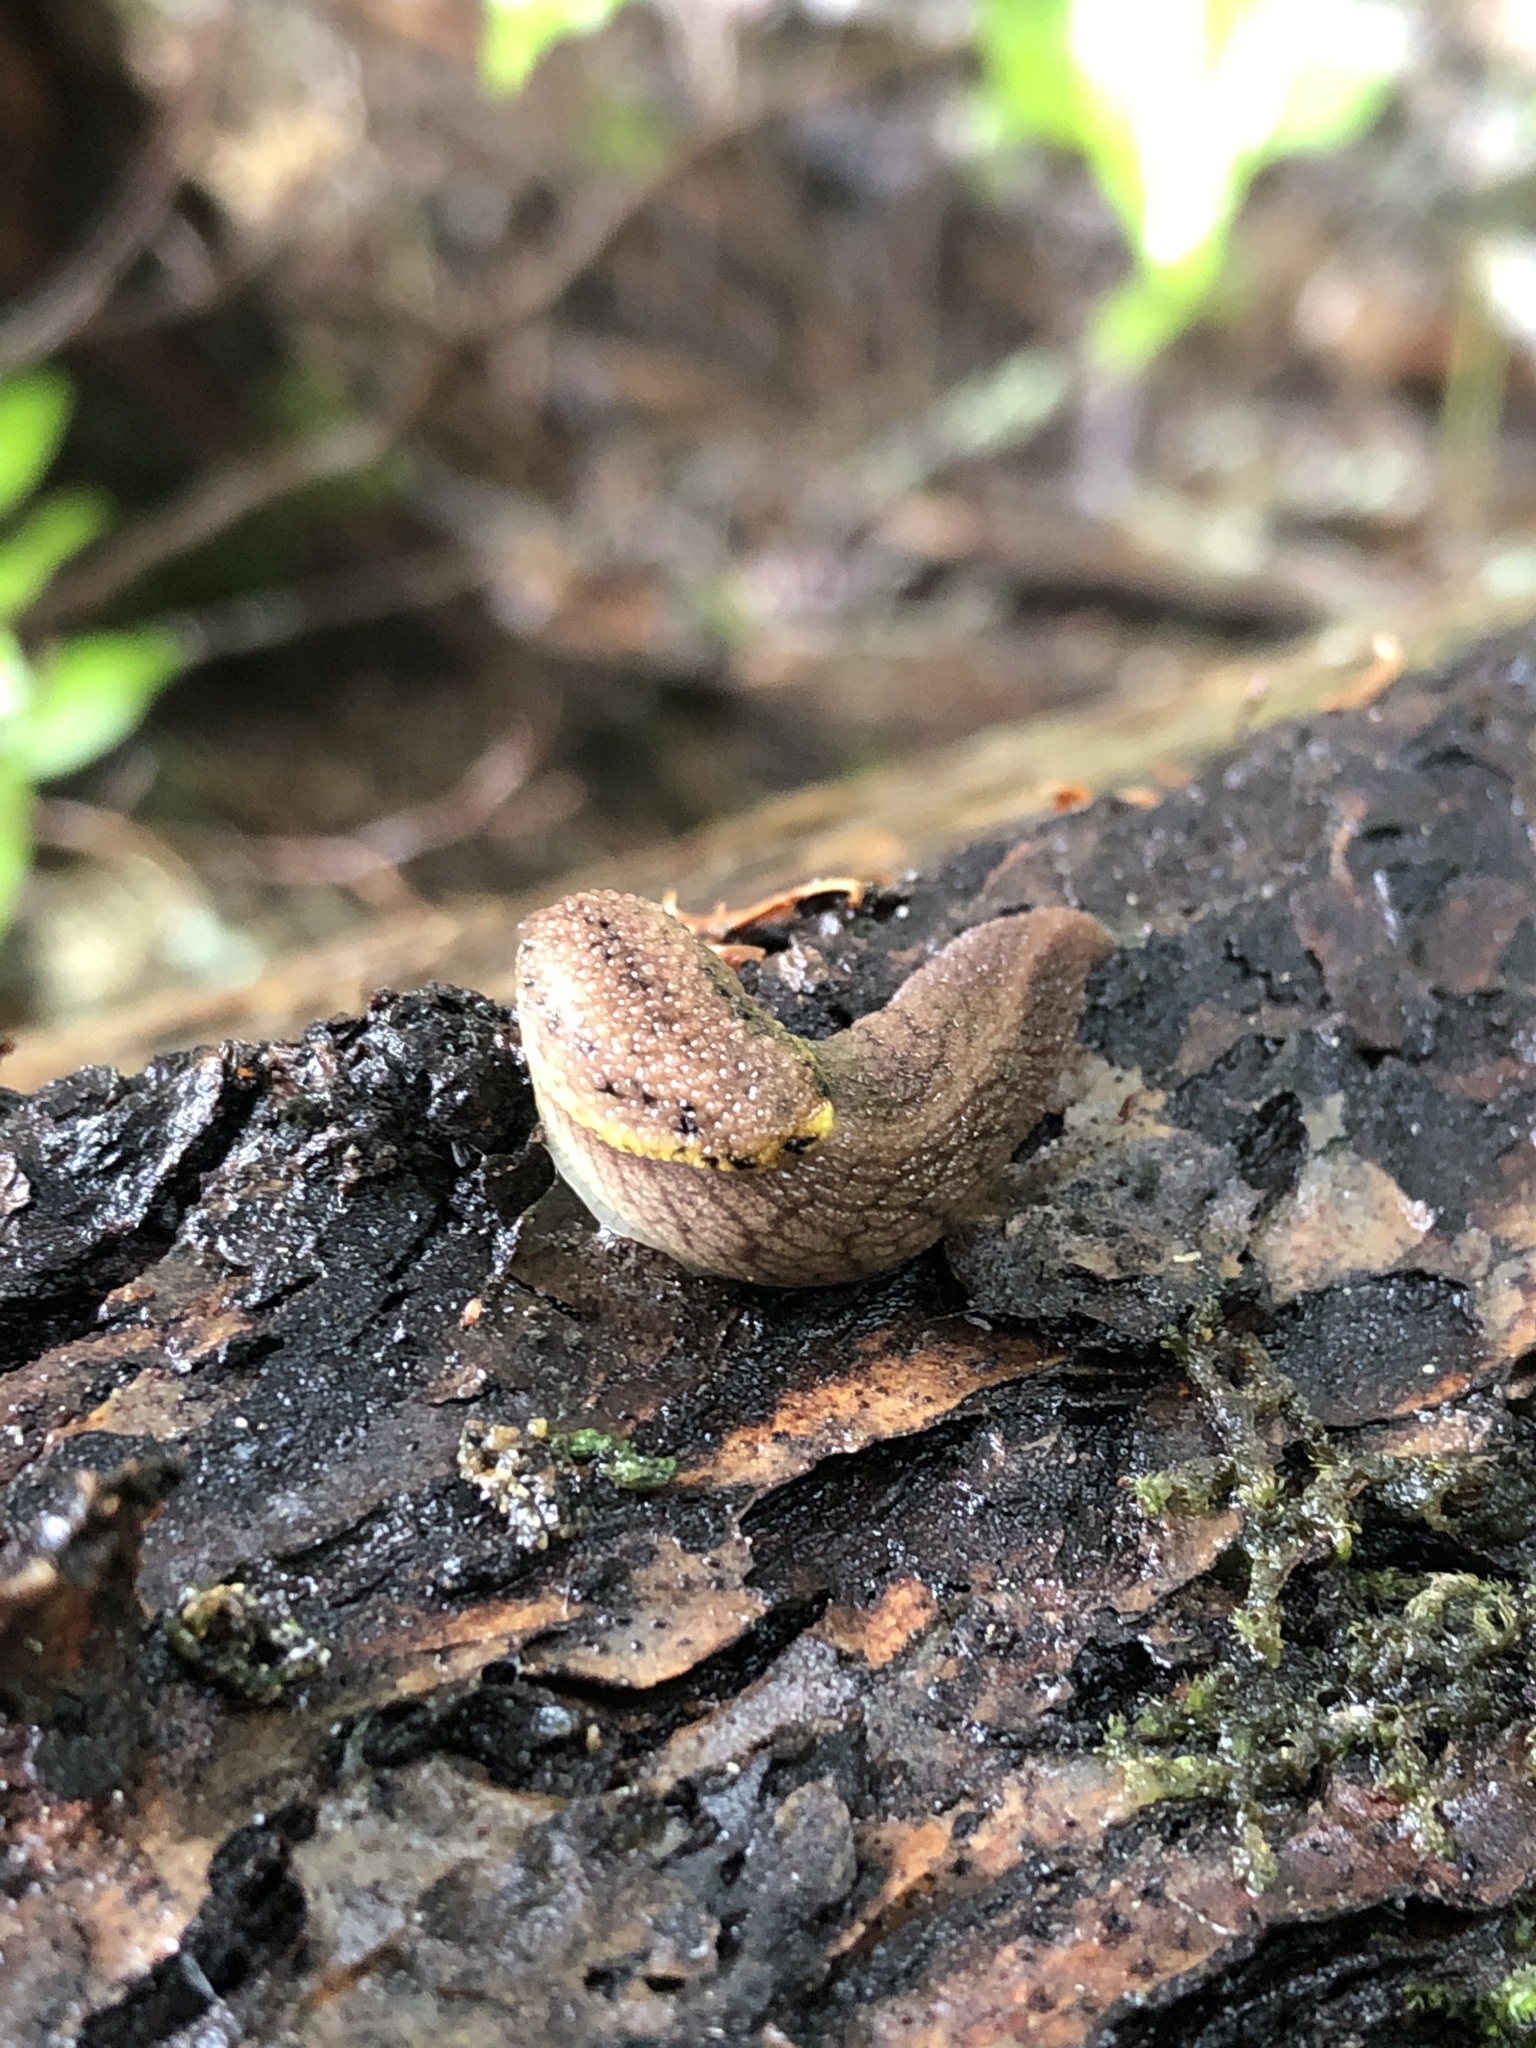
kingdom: Animalia
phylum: Mollusca
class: Gastropoda
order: Stylommatophora
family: Ariolimacidae
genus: Prophysaon
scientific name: Prophysaon foliolatum
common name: Yellow-bordered taildropper
